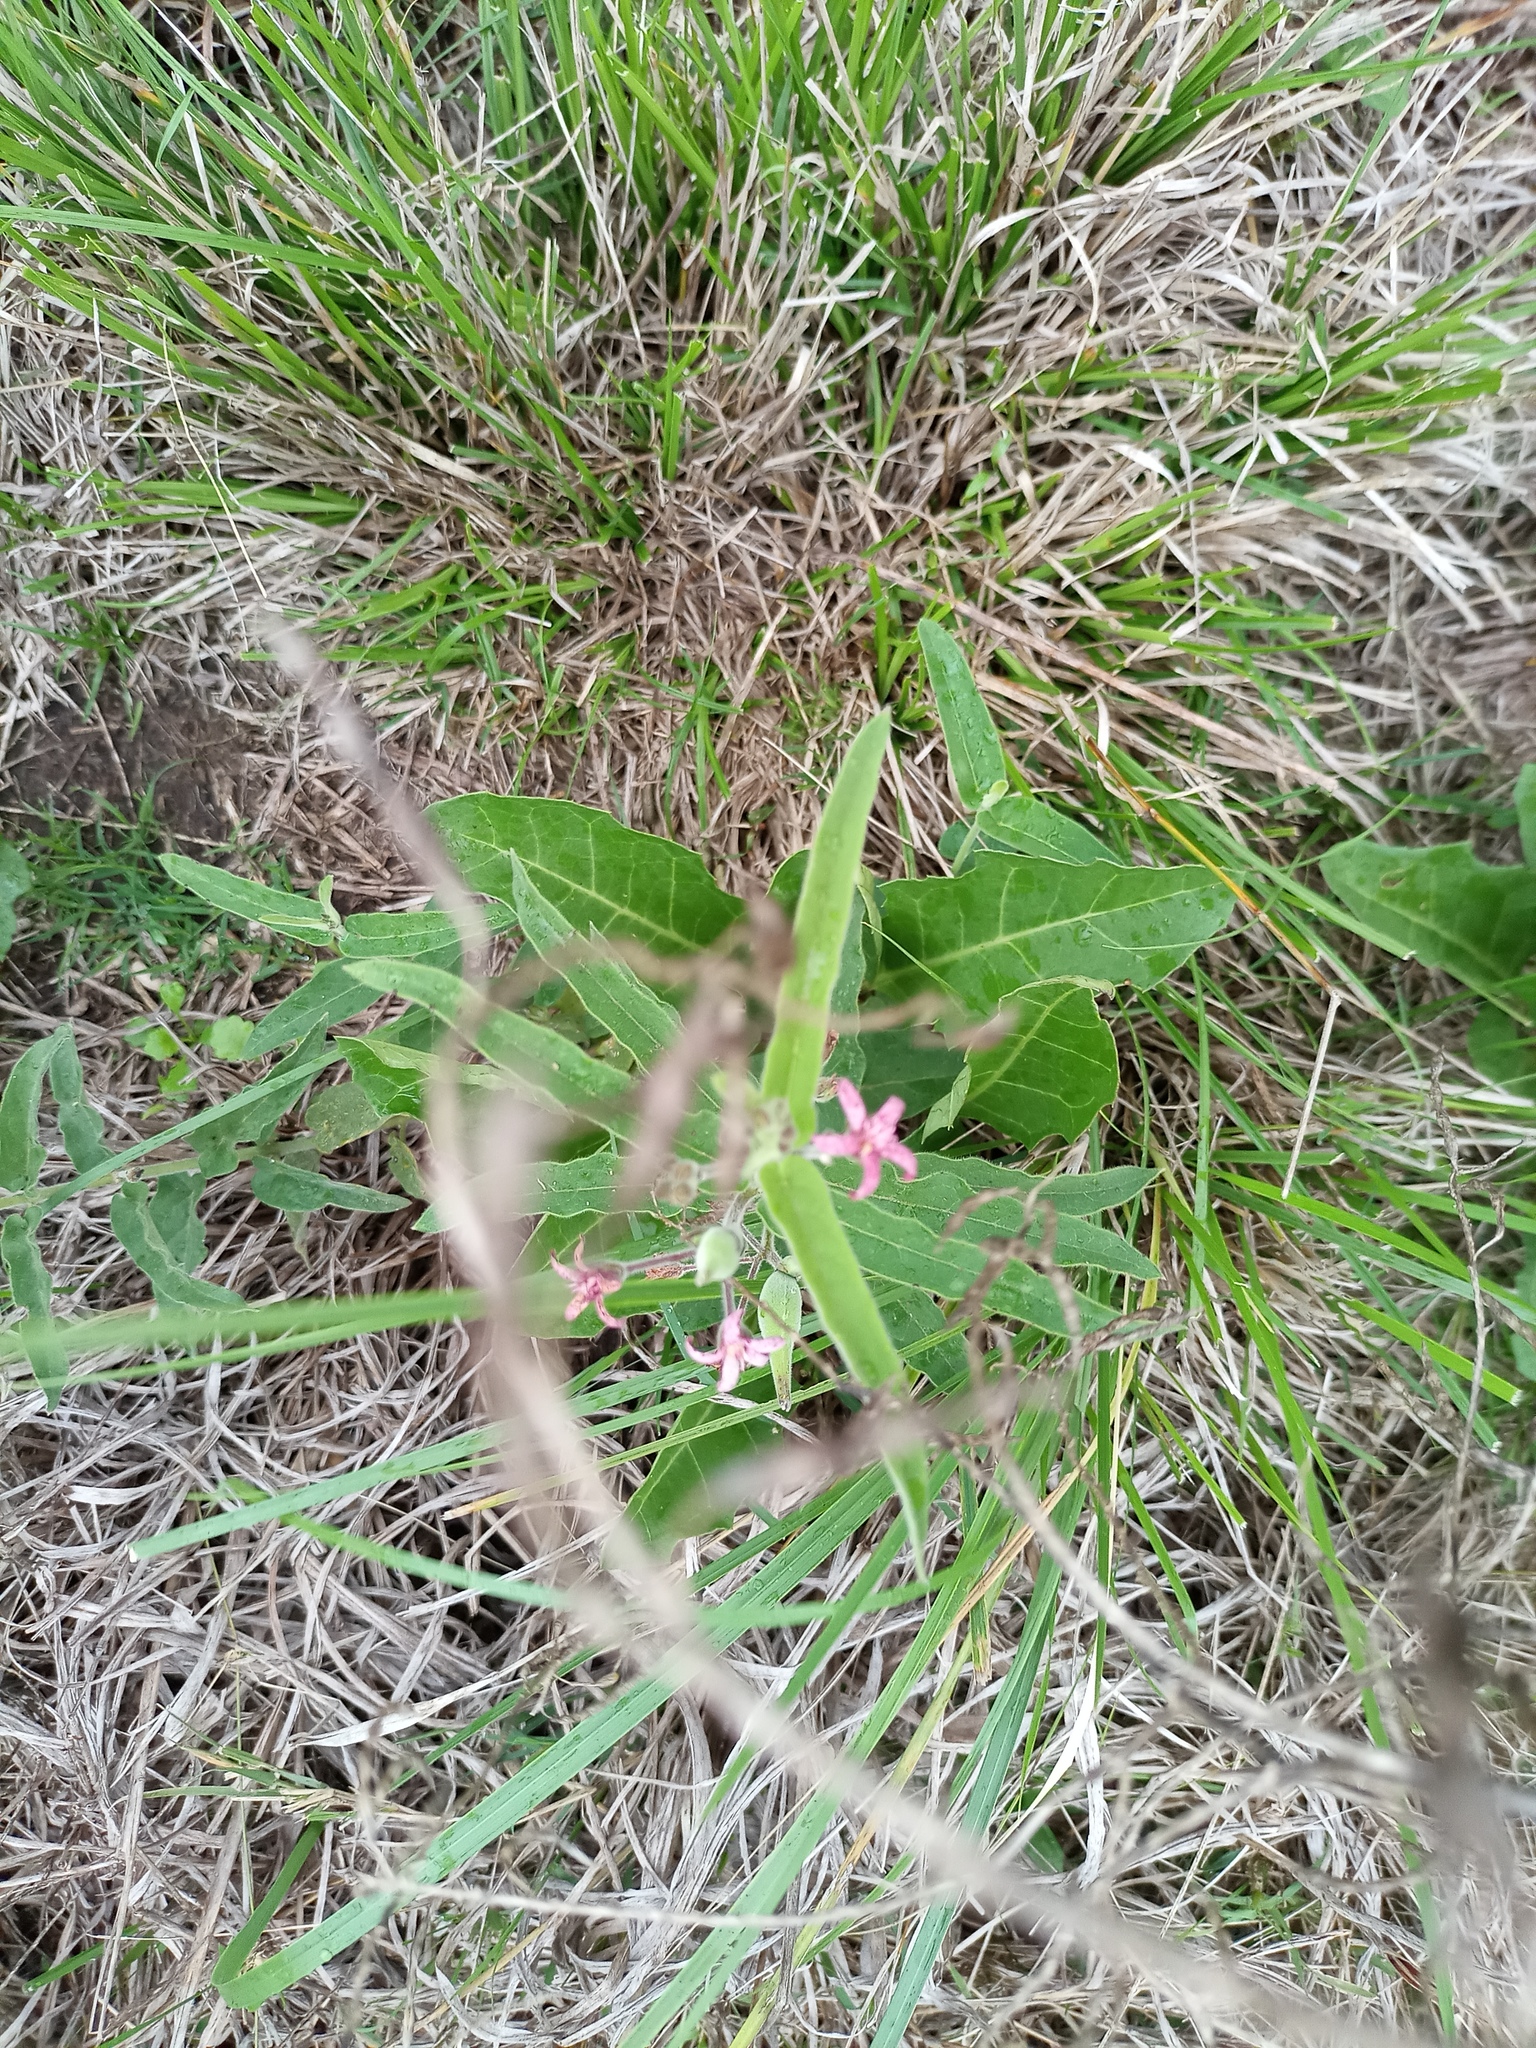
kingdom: Plantae
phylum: Tracheophyta
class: Magnoliopsida
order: Gentianales
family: Apocynaceae
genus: Oxypetalum
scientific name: Oxypetalum solanoides
